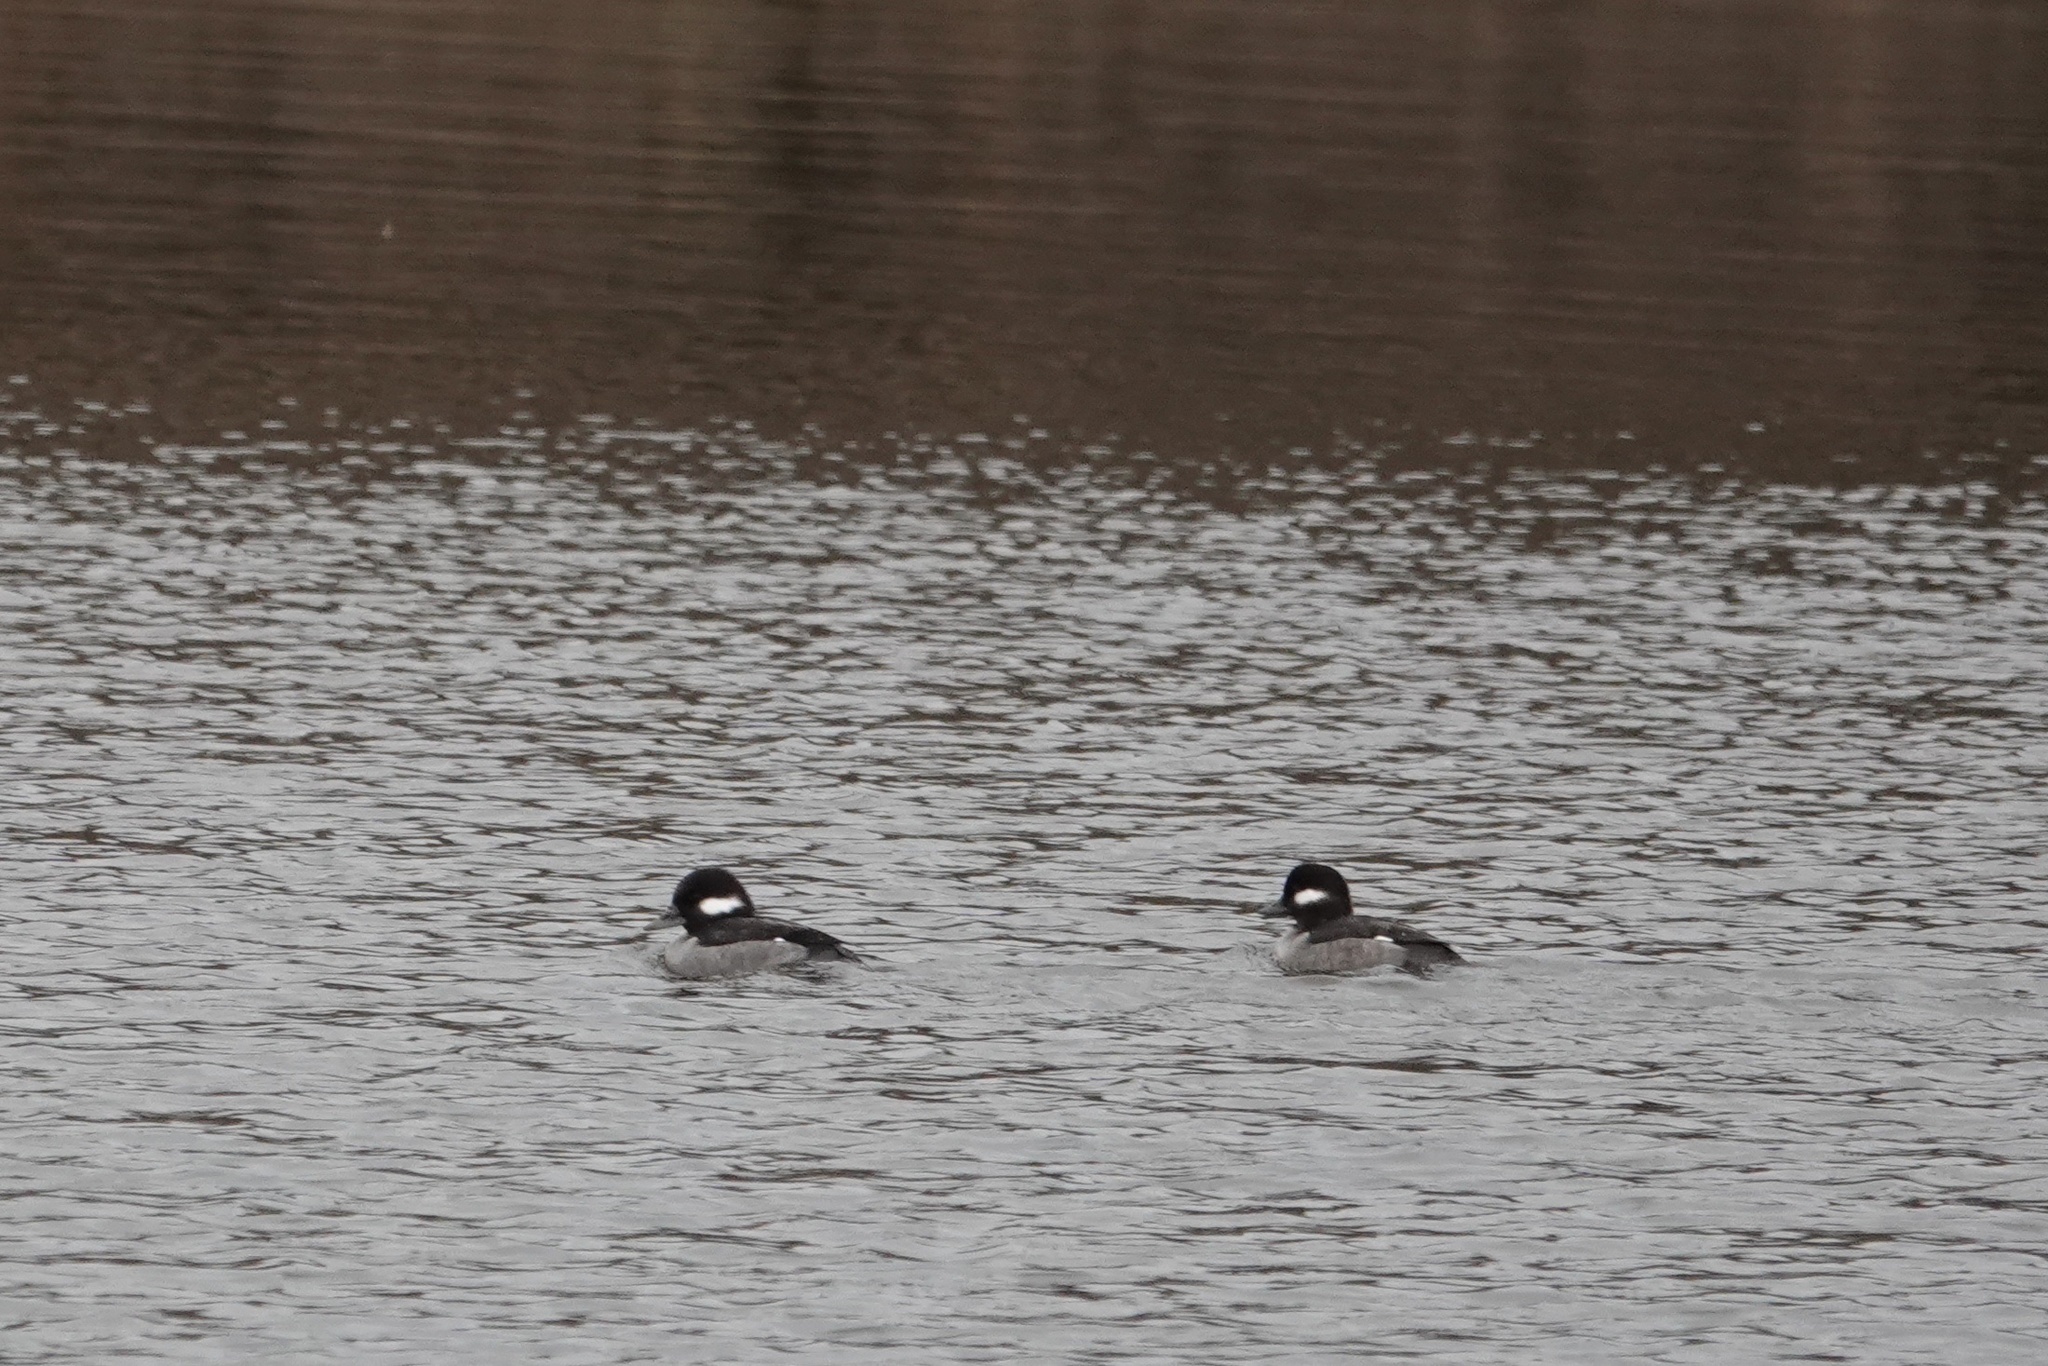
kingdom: Animalia
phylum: Chordata
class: Aves
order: Anseriformes
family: Anatidae
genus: Bucephala
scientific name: Bucephala albeola
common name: Bufflehead
